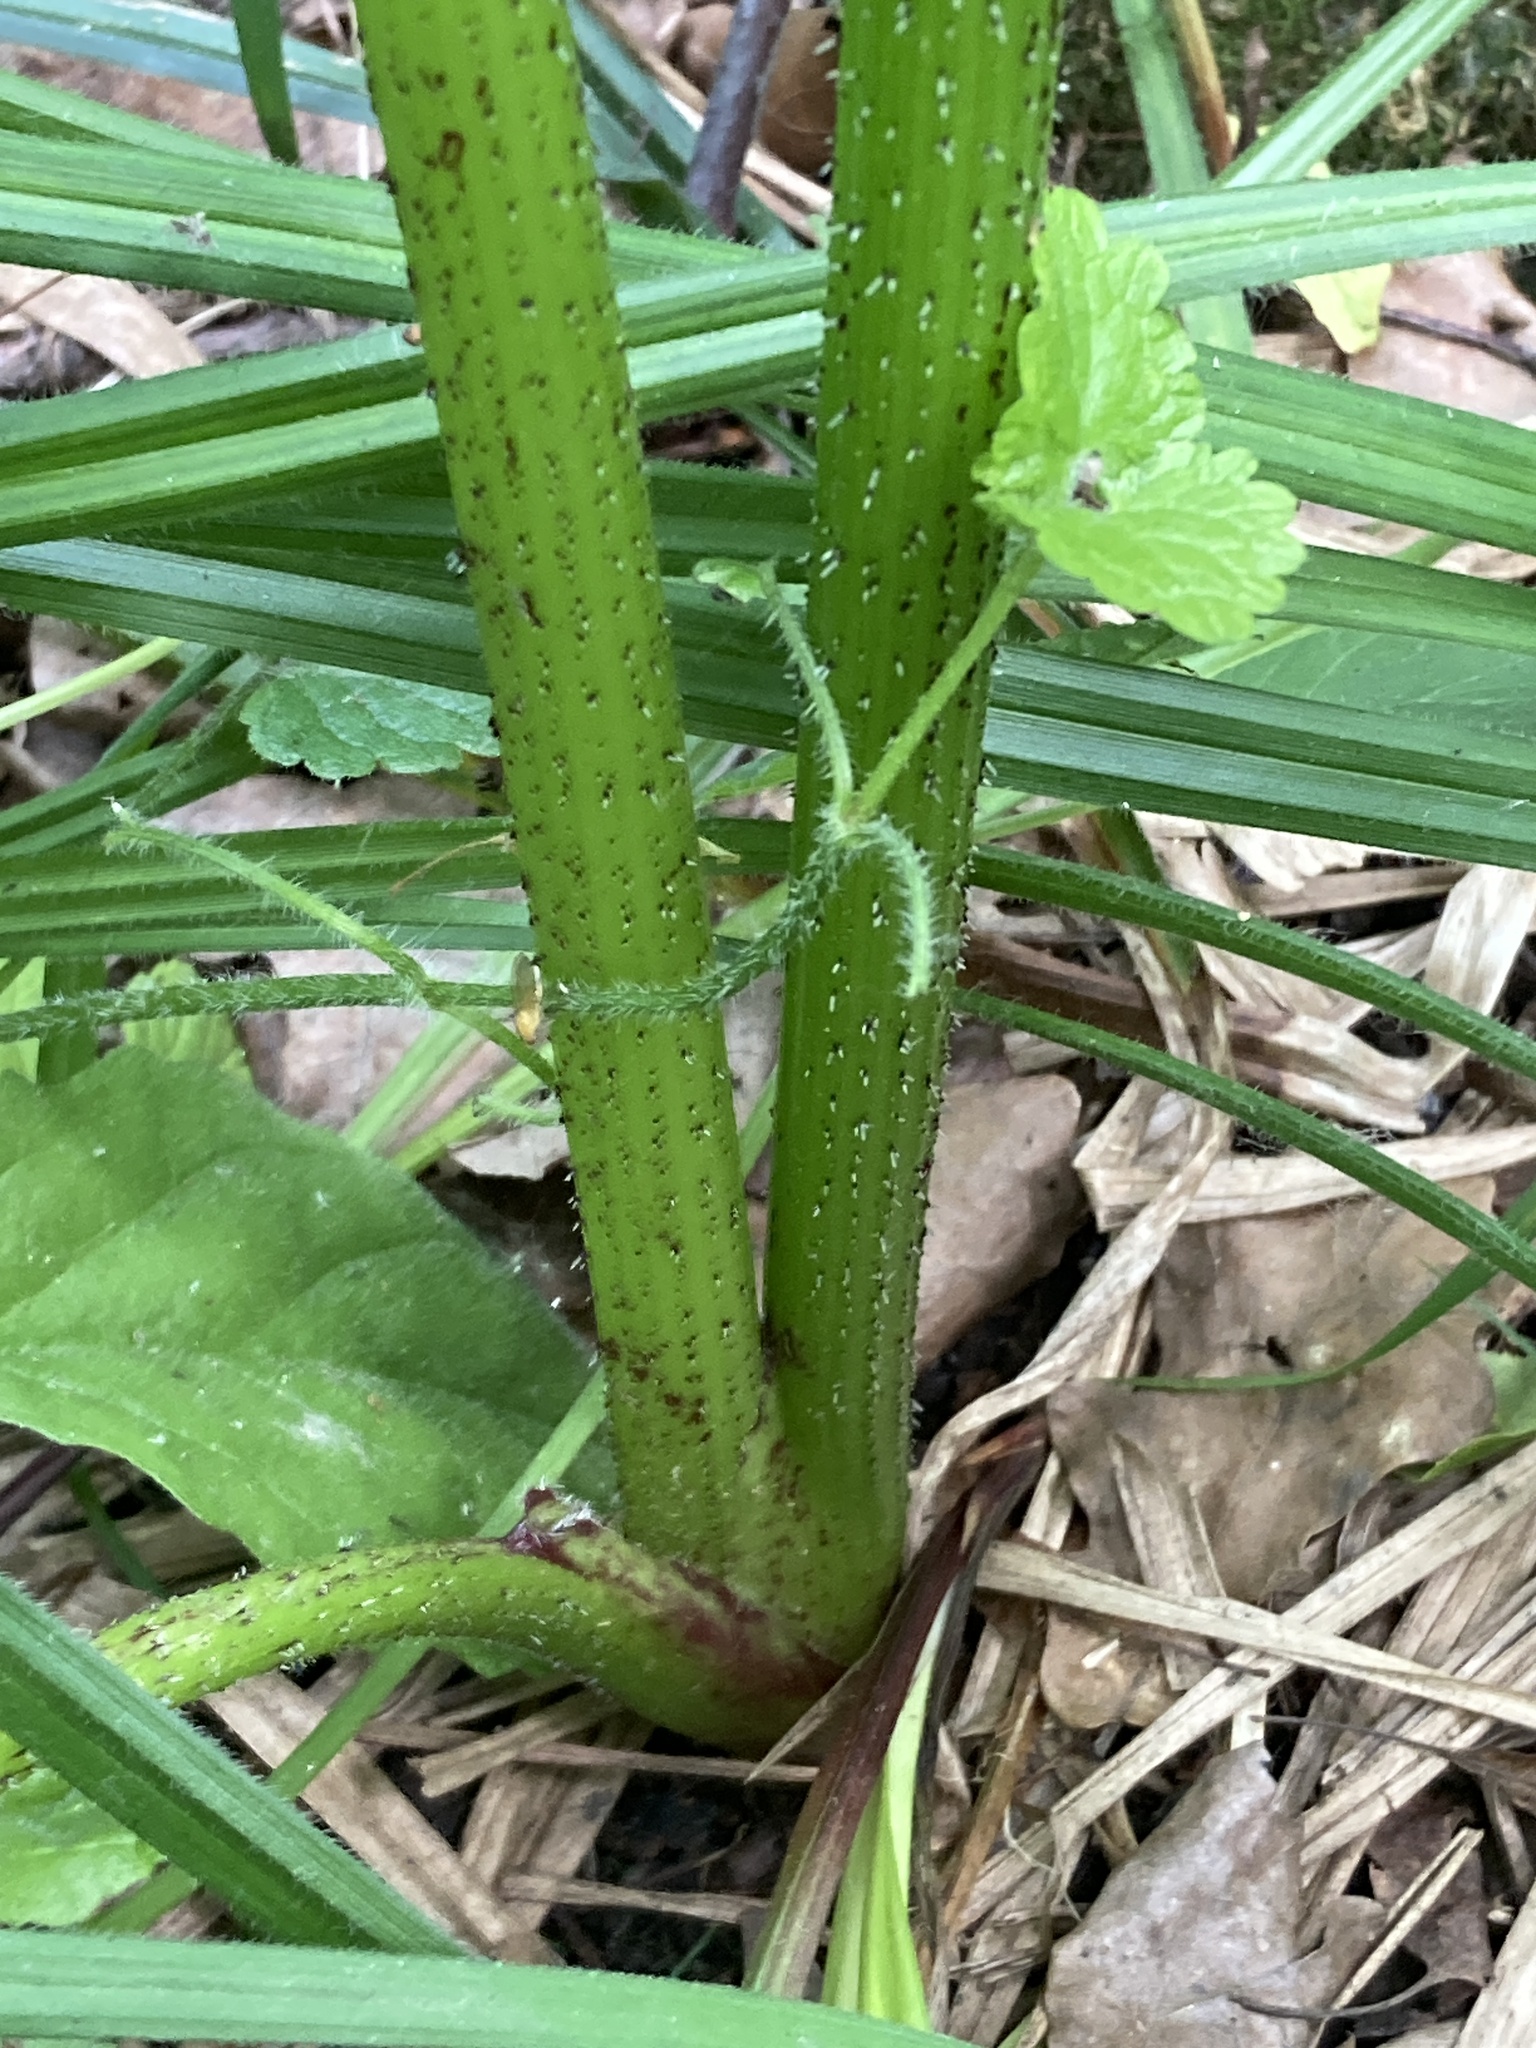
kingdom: Plantae
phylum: Tracheophyta
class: Magnoliopsida
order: Apiales
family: Apiaceae
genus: Heracleum
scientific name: Heracleum sosnowskyi
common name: Sosnowsky's hogweed
